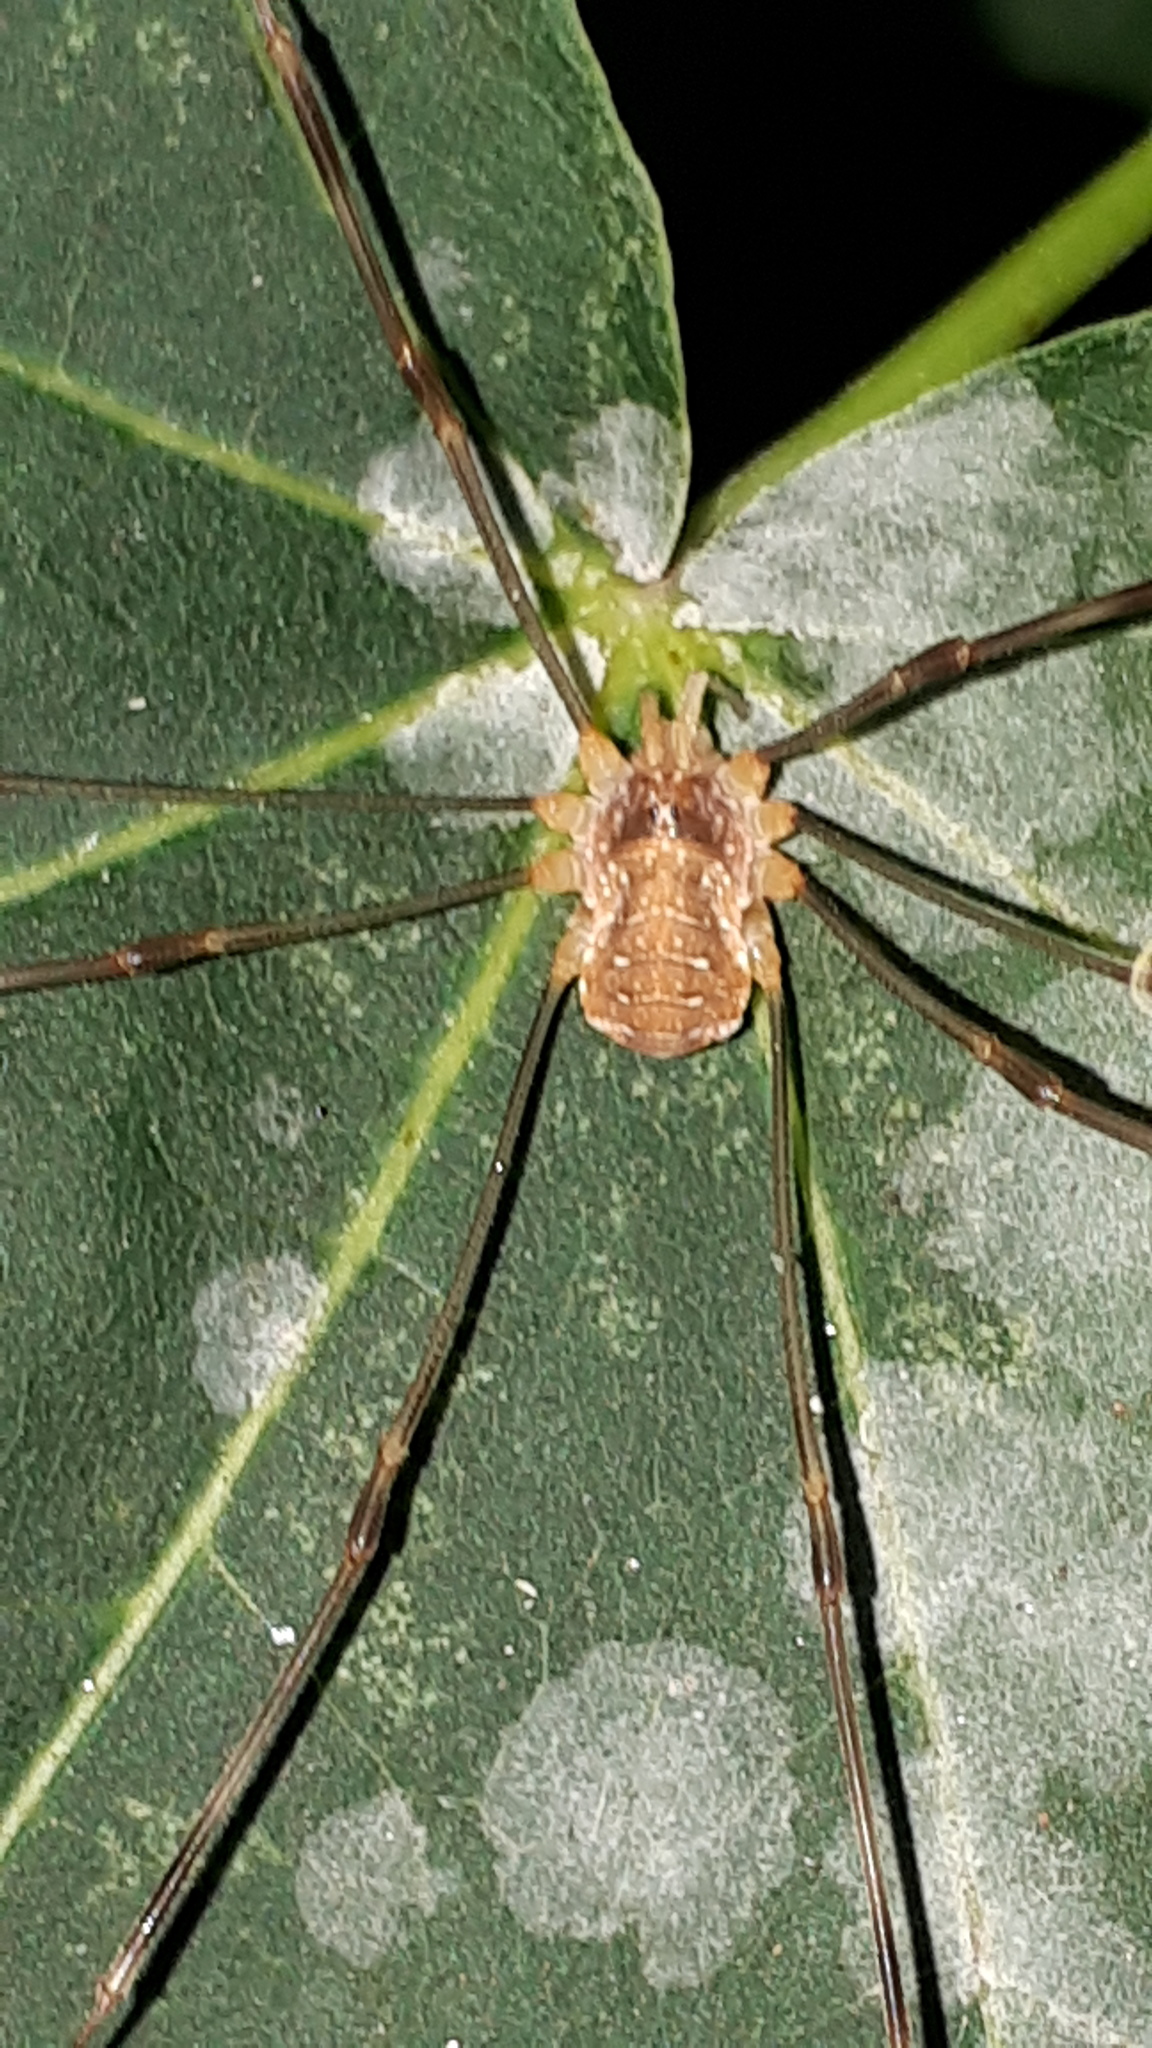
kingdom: Animalia
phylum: Arthropoda
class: Arachnida
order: Opiliones
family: Phalangiidae
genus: Opilio
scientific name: Opilio canestrinii
